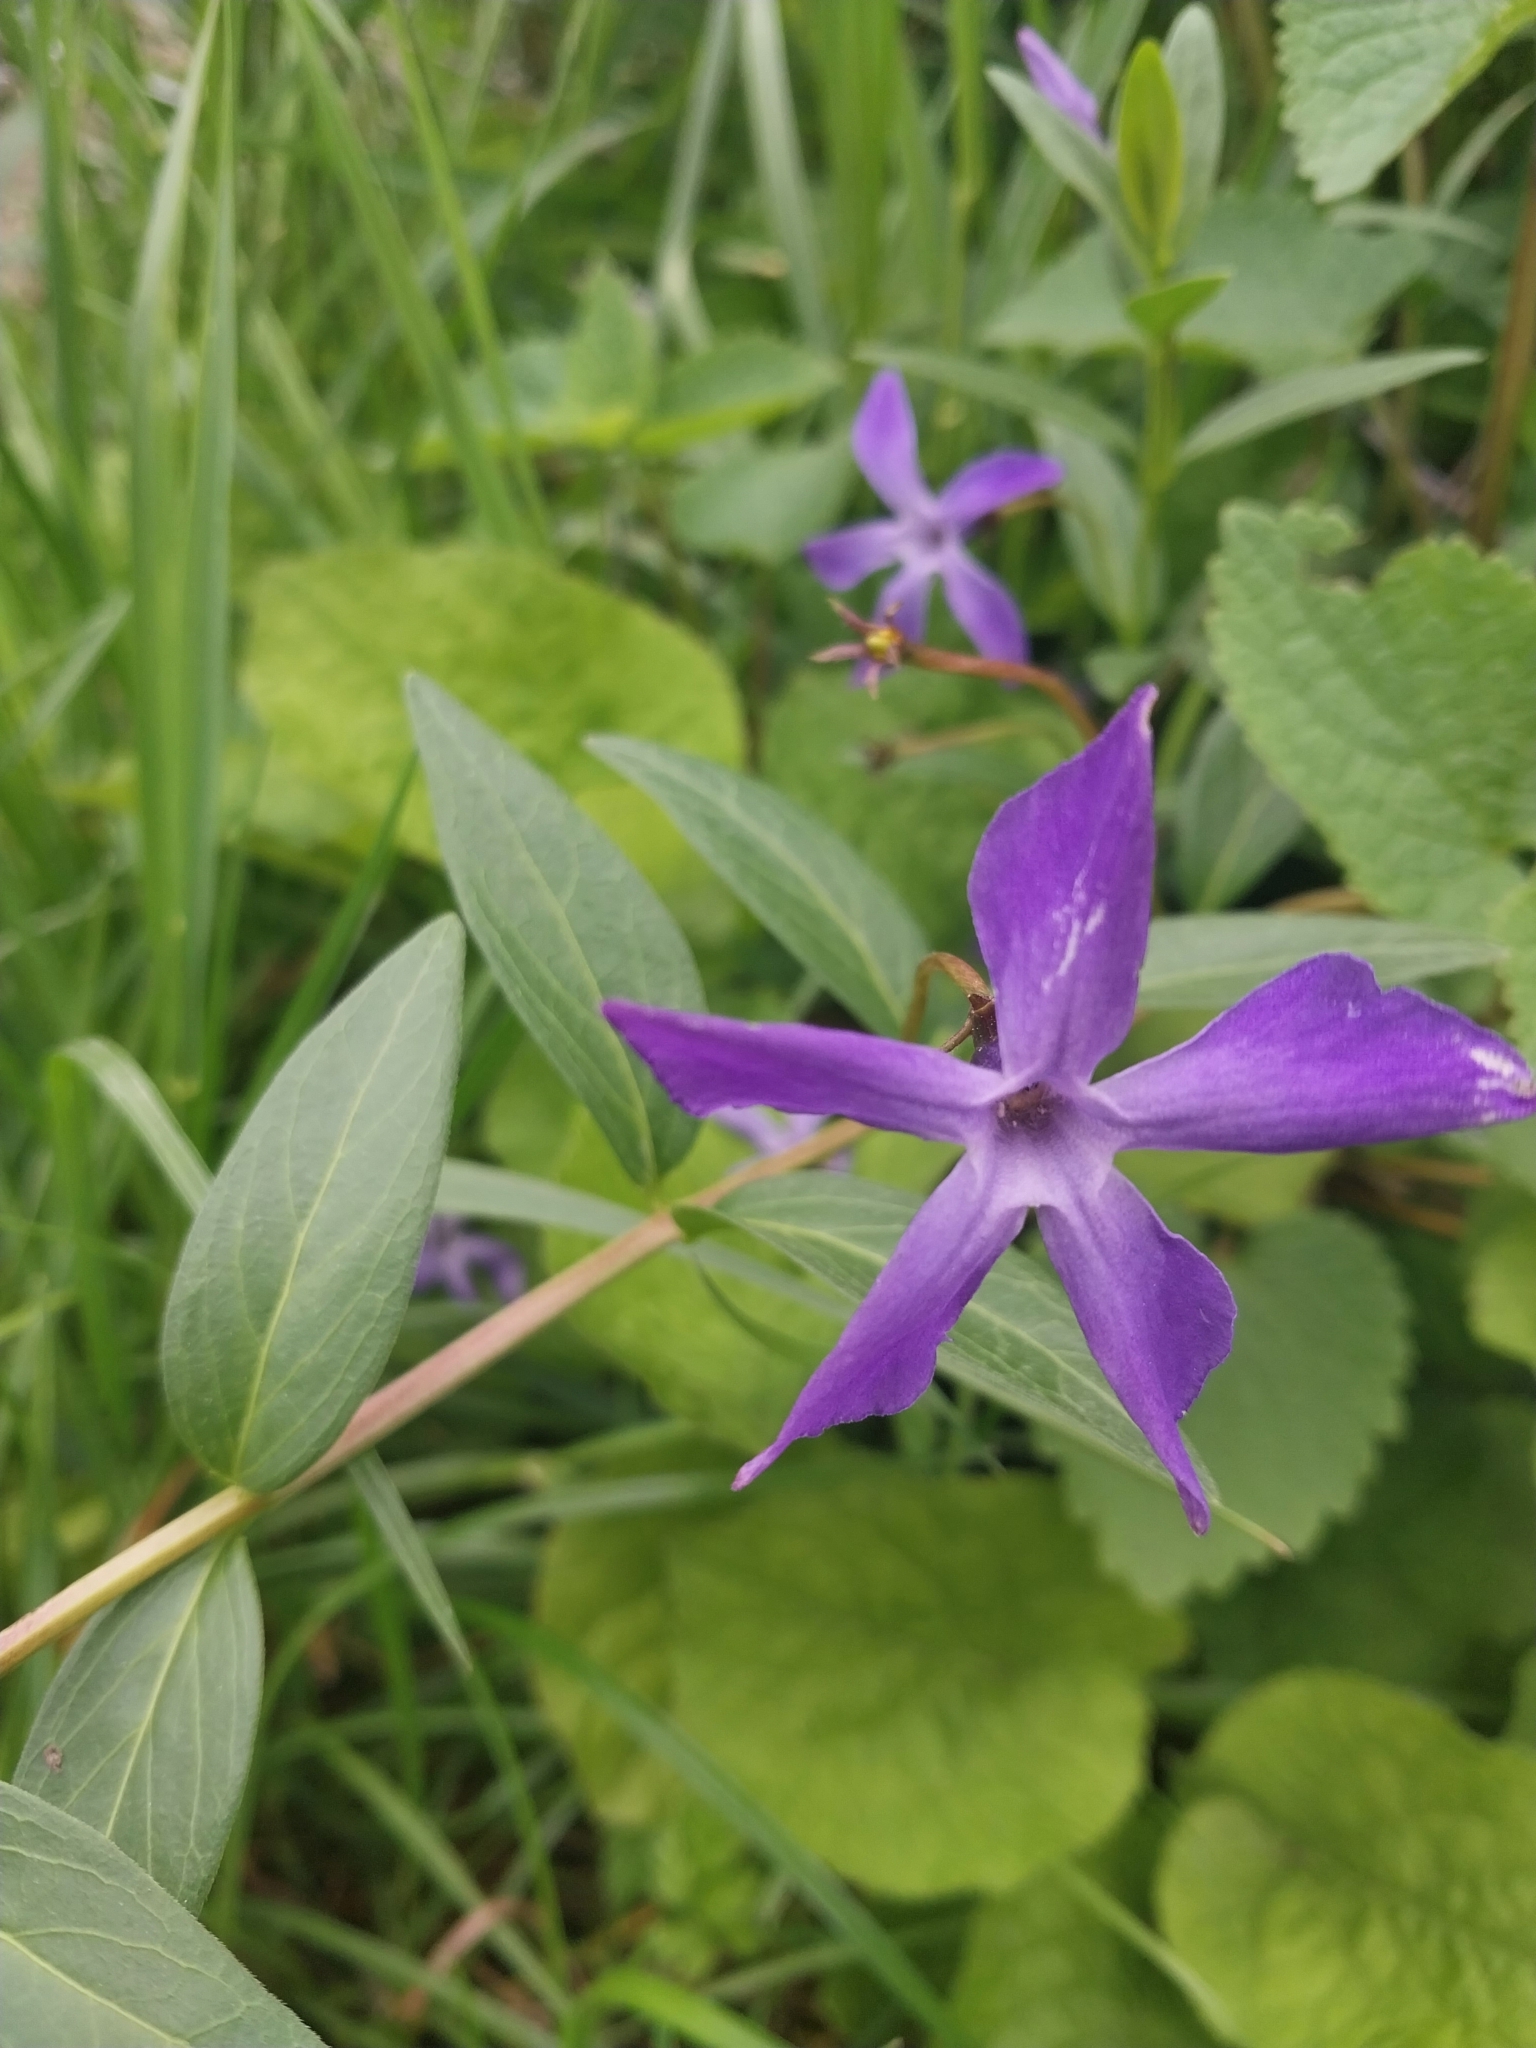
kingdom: Plantae
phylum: Tracheophyta
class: Magnoliopsida
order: Gentianales
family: Apocynaceae
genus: Vinca
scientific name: Vinca herbacea
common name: Herbaceous periwinkle
